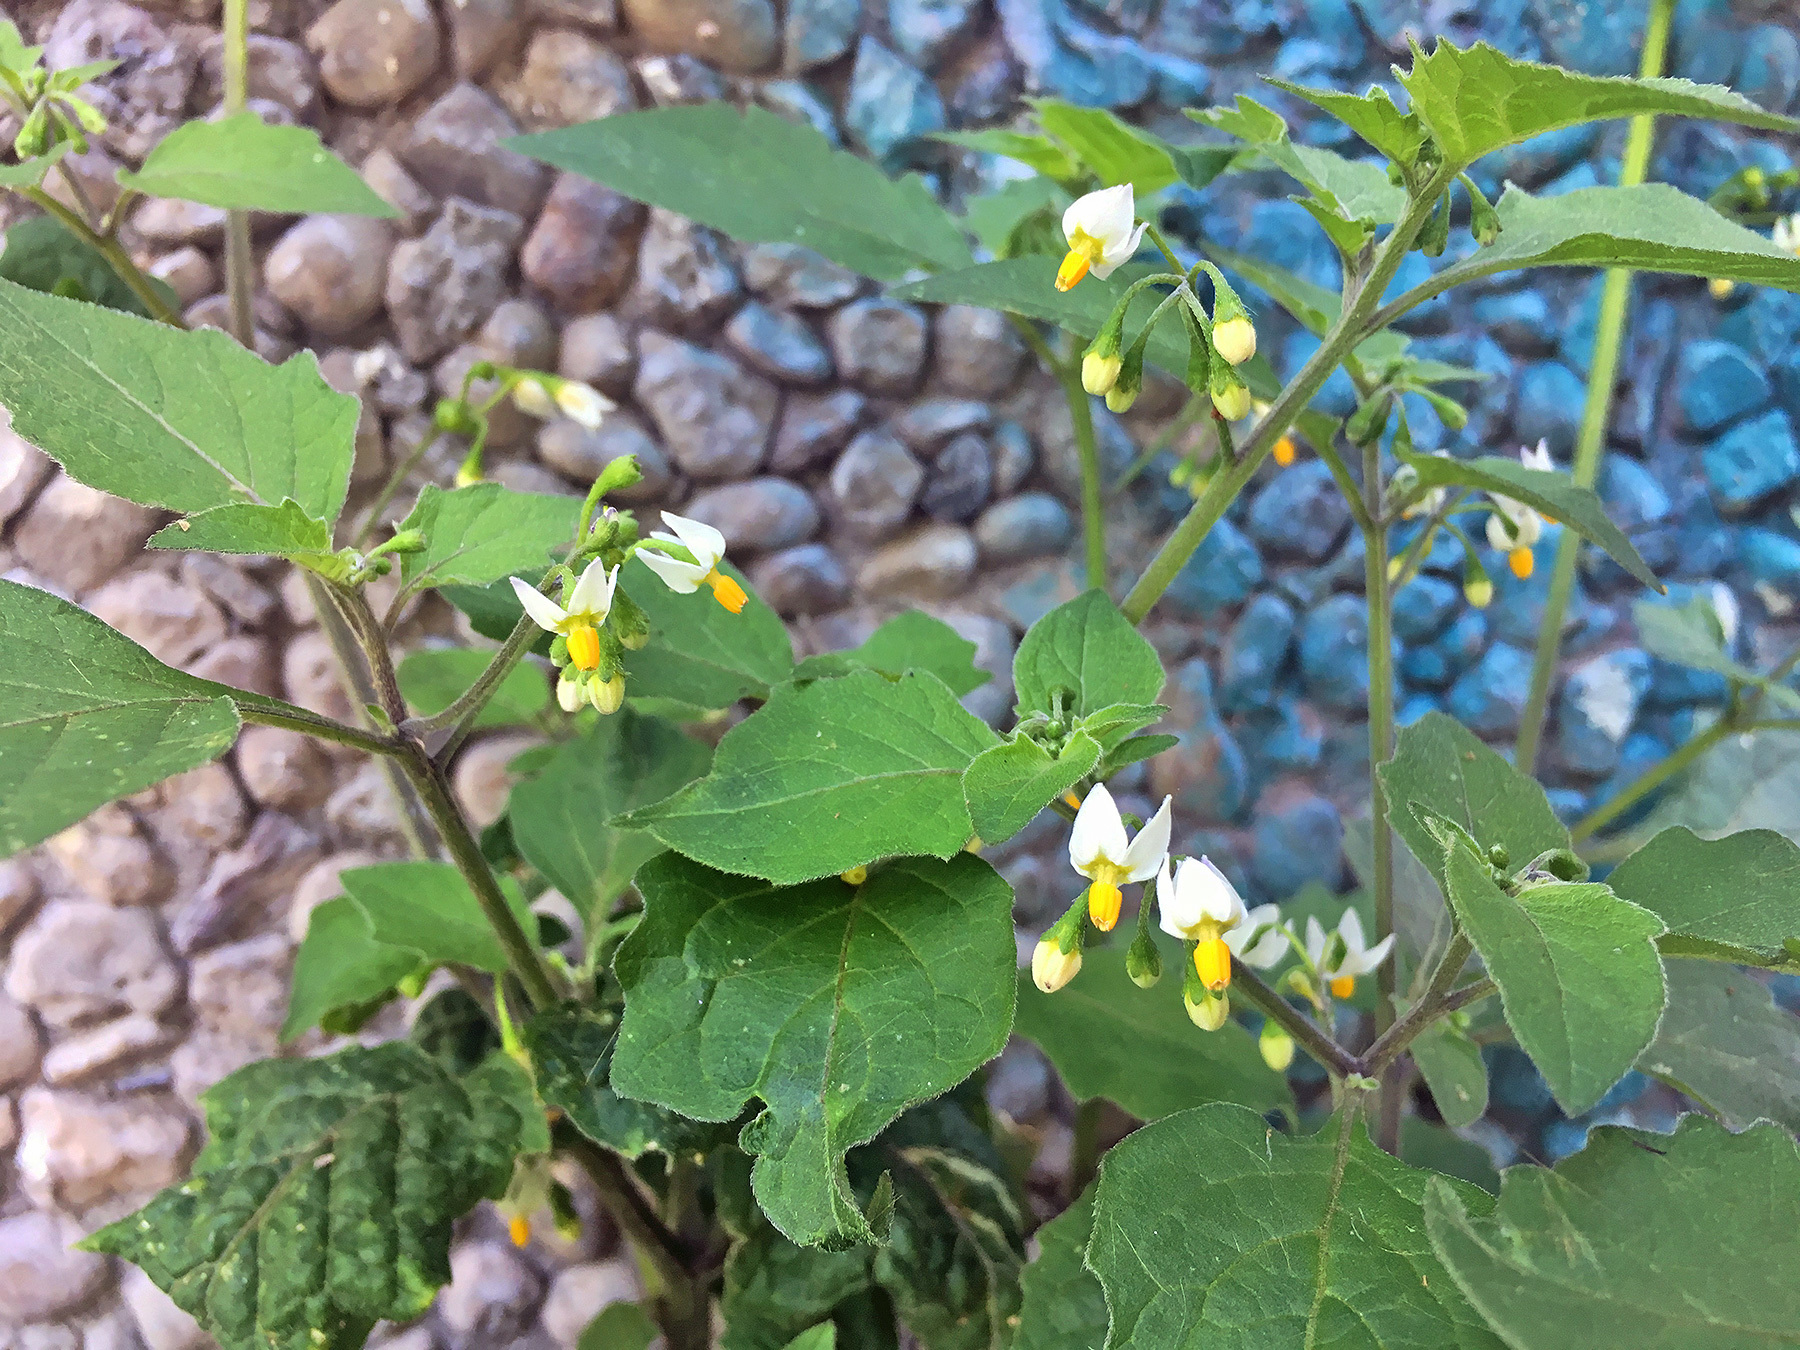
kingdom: Plantae
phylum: Tracheophyta
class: Magnoliopsida
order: Solanales
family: Solanaceae
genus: Solanum
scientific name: Solanum nigrum
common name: Black nightshade
